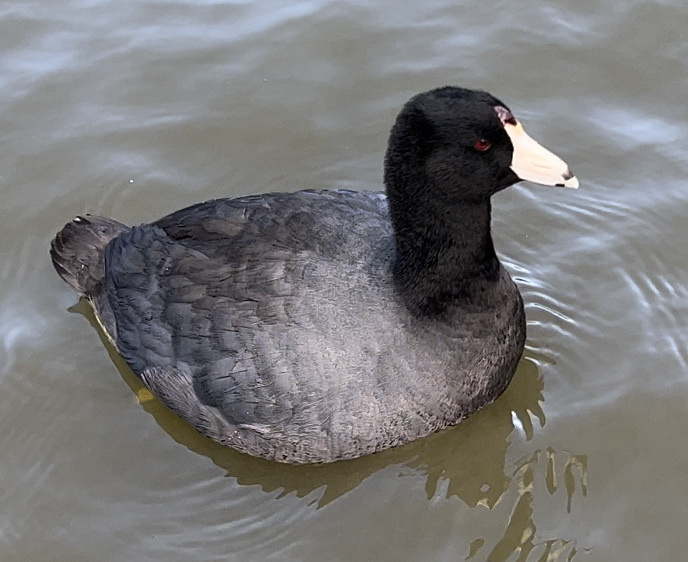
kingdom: Animalia
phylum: Chordata
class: Aves
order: Gruiformes
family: Rallidae
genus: Fulica
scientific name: Fulica americana
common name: American coot
